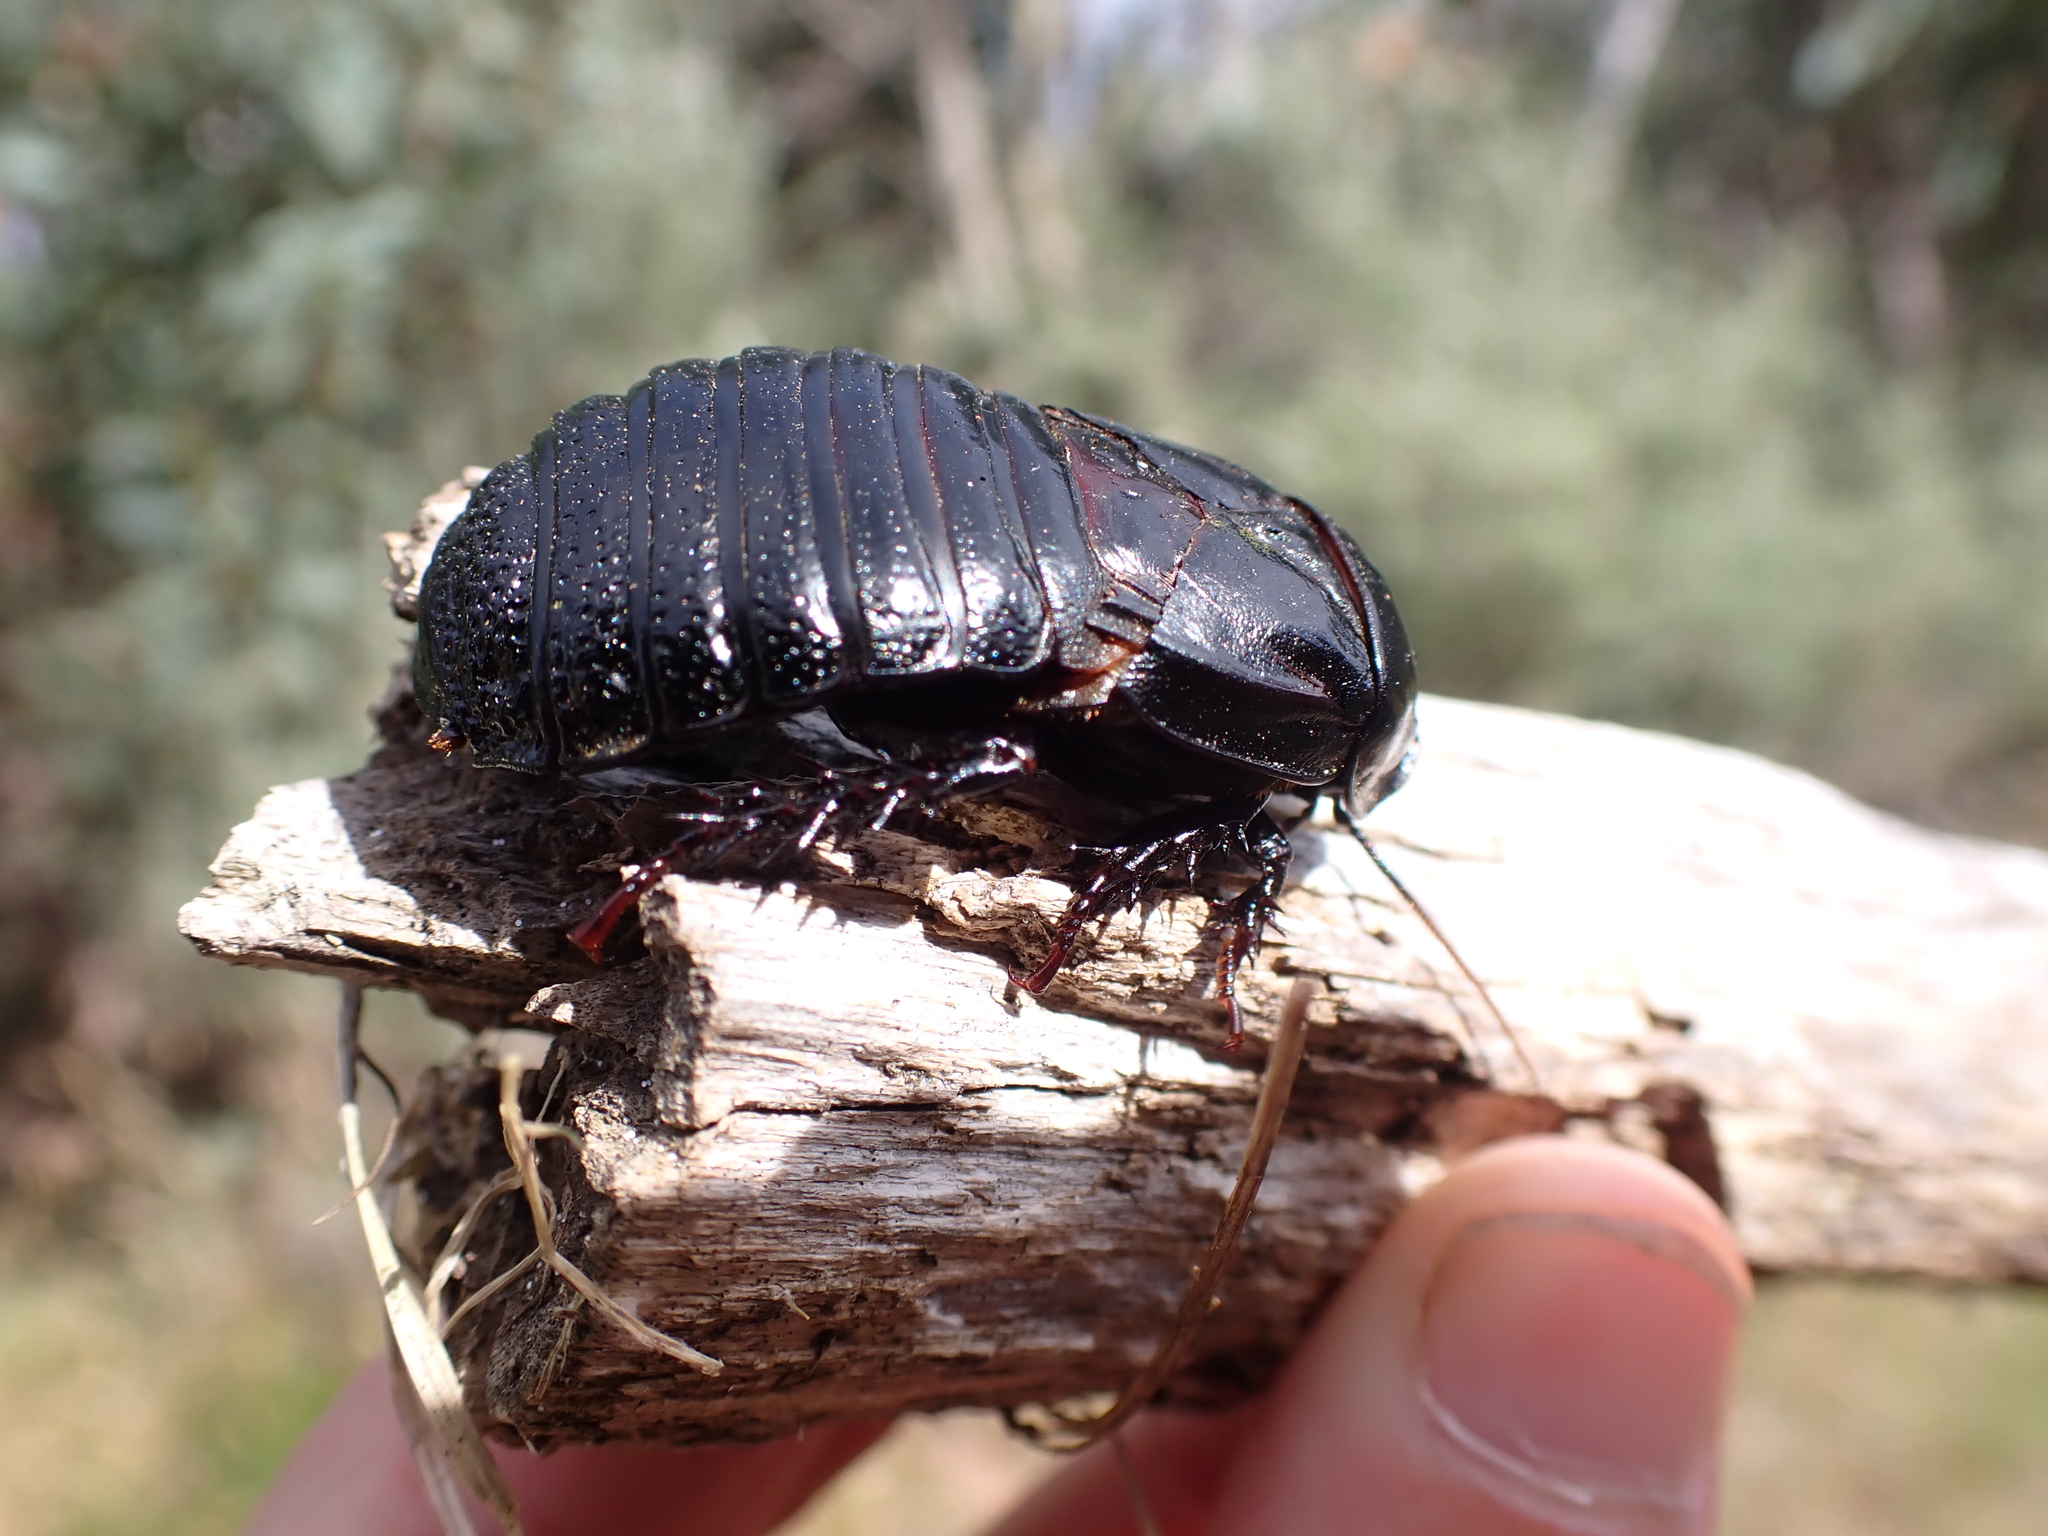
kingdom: Animalia
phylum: Arthropoda
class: Insecta
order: Blattodea
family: Blaberidae
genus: Panesthia
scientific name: Panesthia australis
